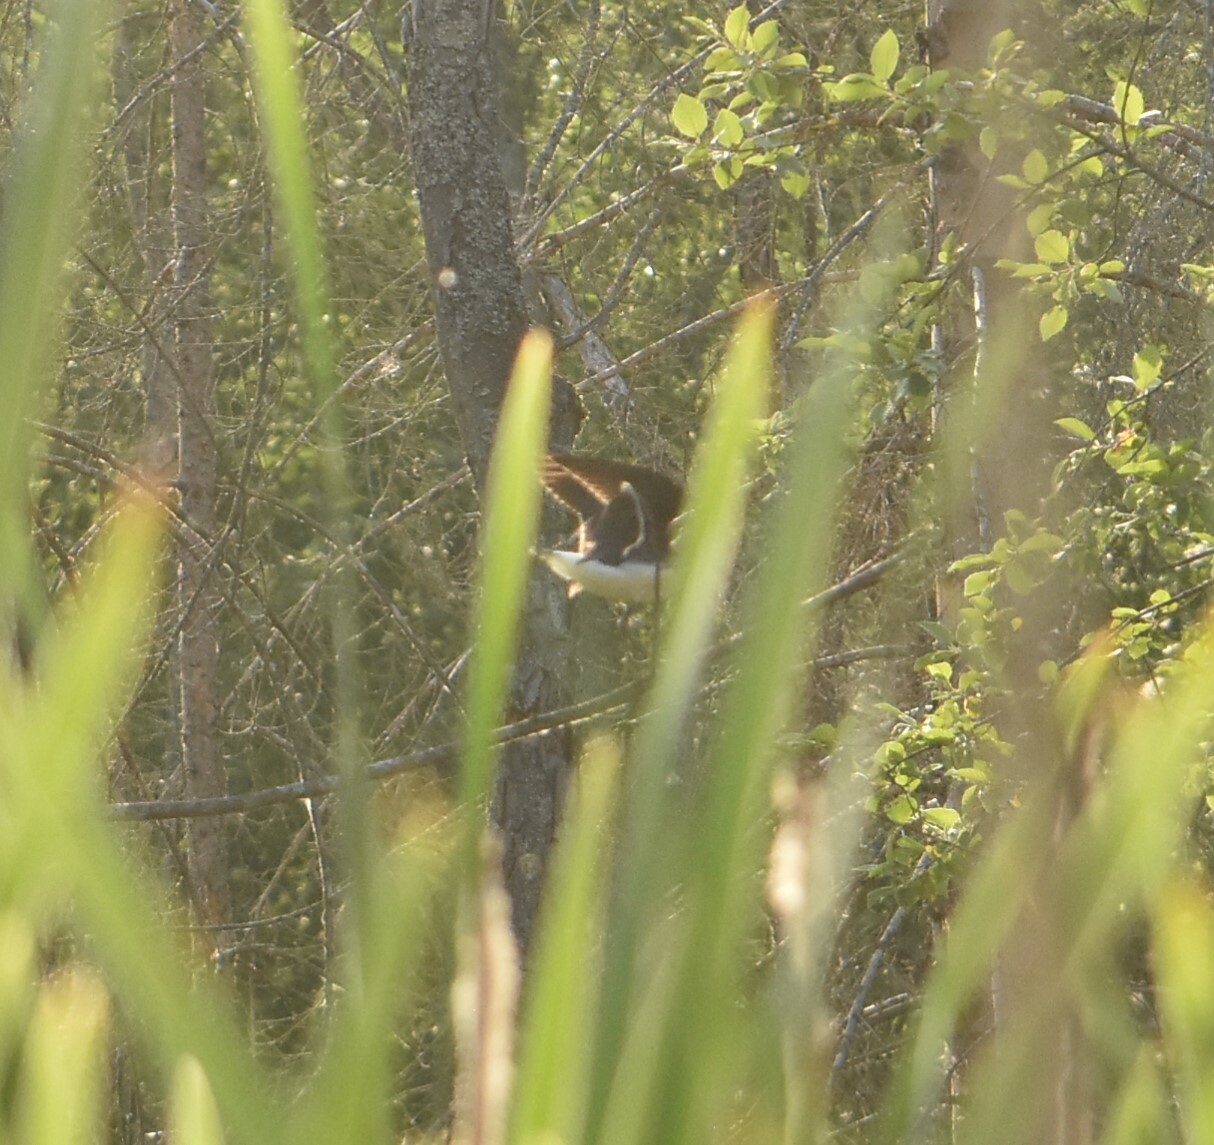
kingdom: Animalia
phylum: Chordata
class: Aves
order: Charadriiformes
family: Scolopacidae
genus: Tringa
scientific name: Tringa ochropus
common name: Green sandpiper
